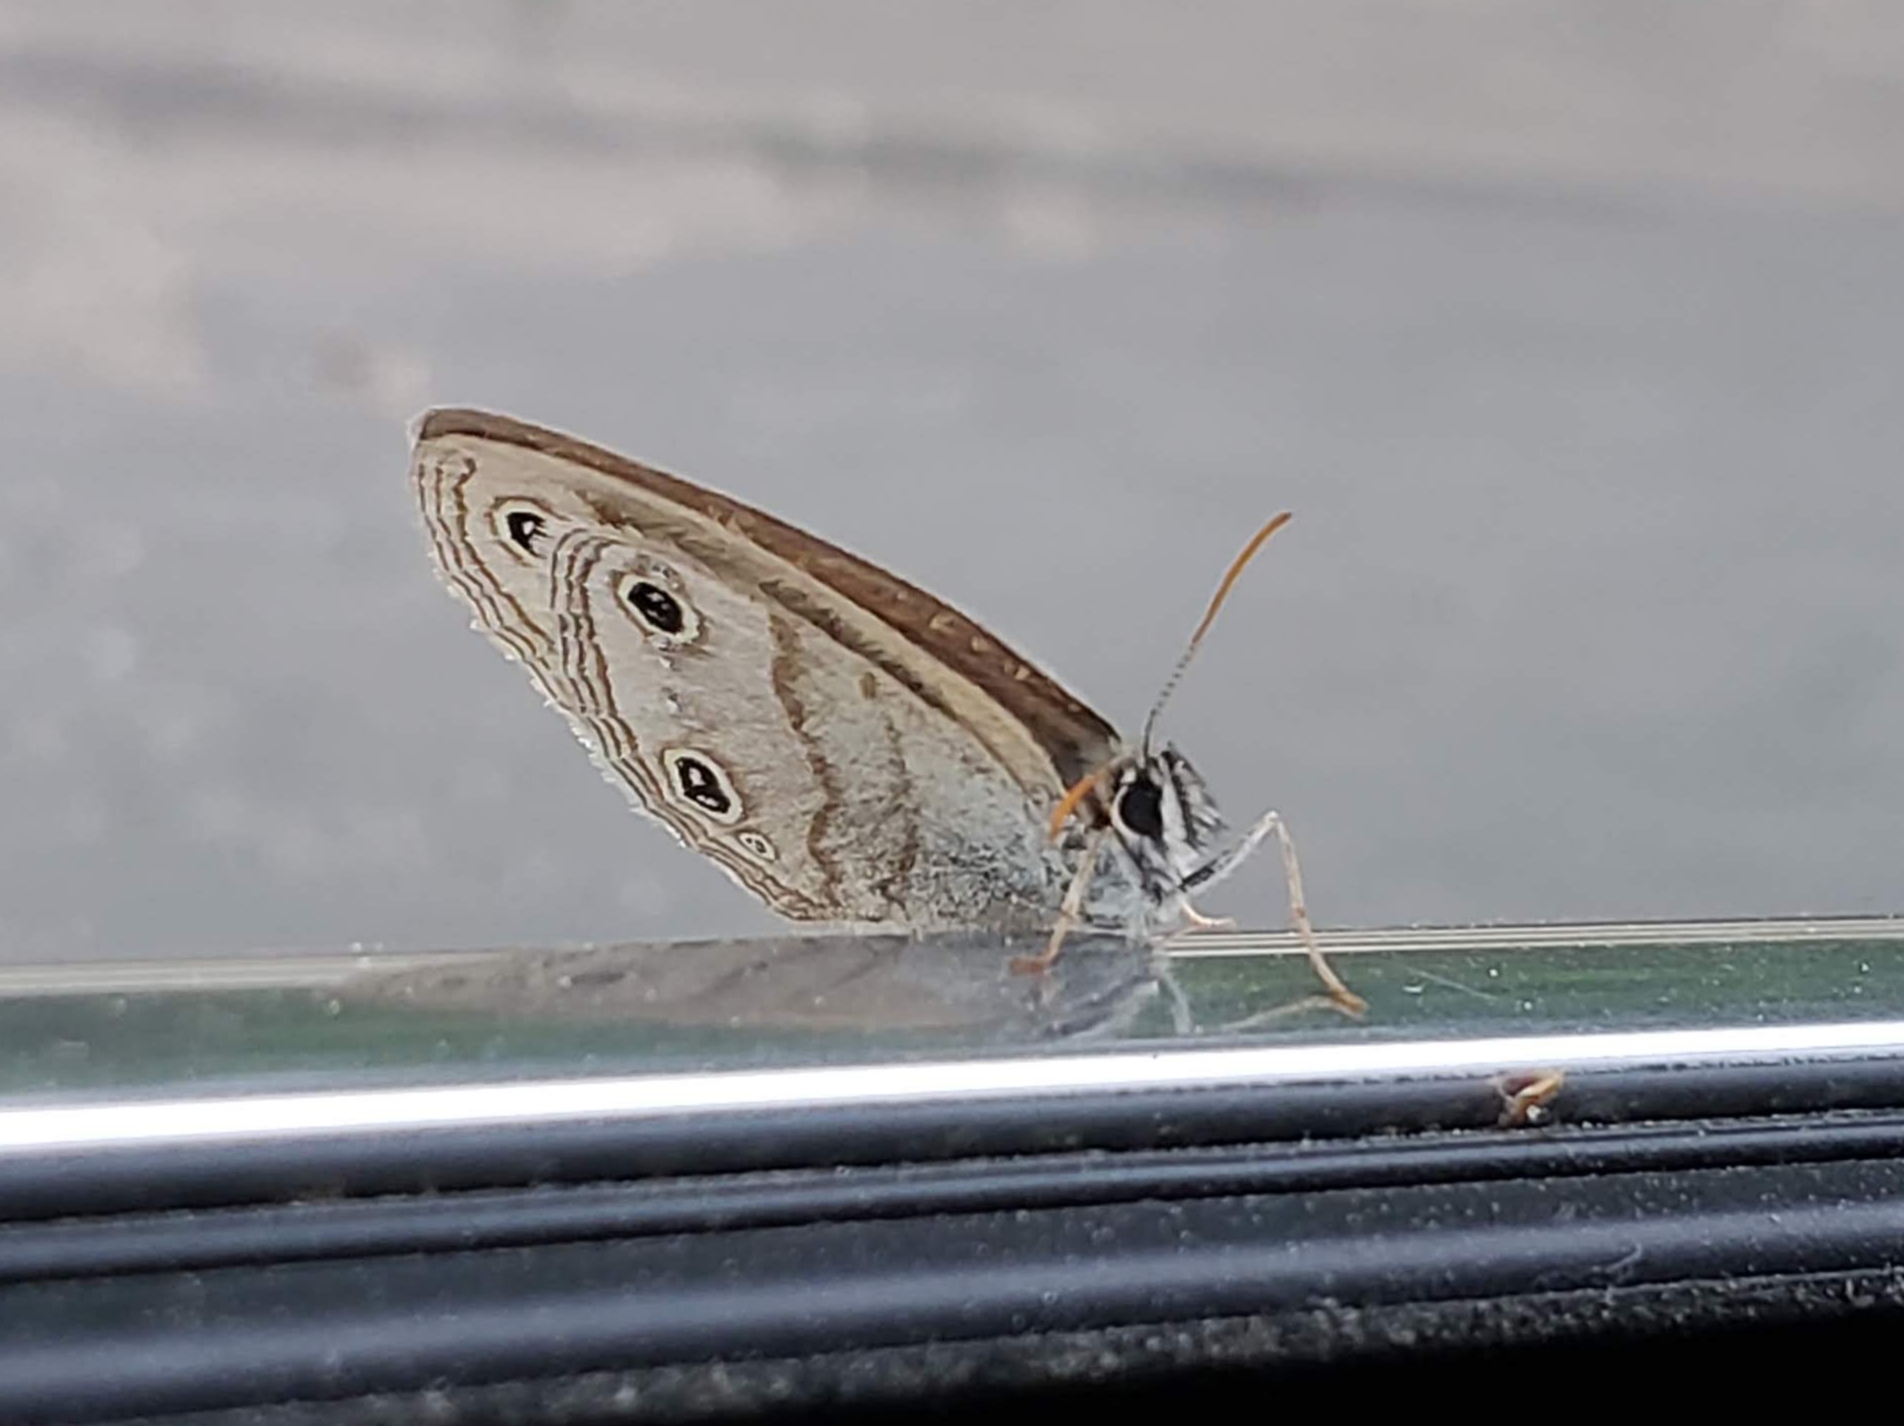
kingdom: Animalia
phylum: Arthropoda
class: Insecta
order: Lepidoptera
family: Nymphalidae
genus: Euptychia
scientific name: Euptychia cymela
